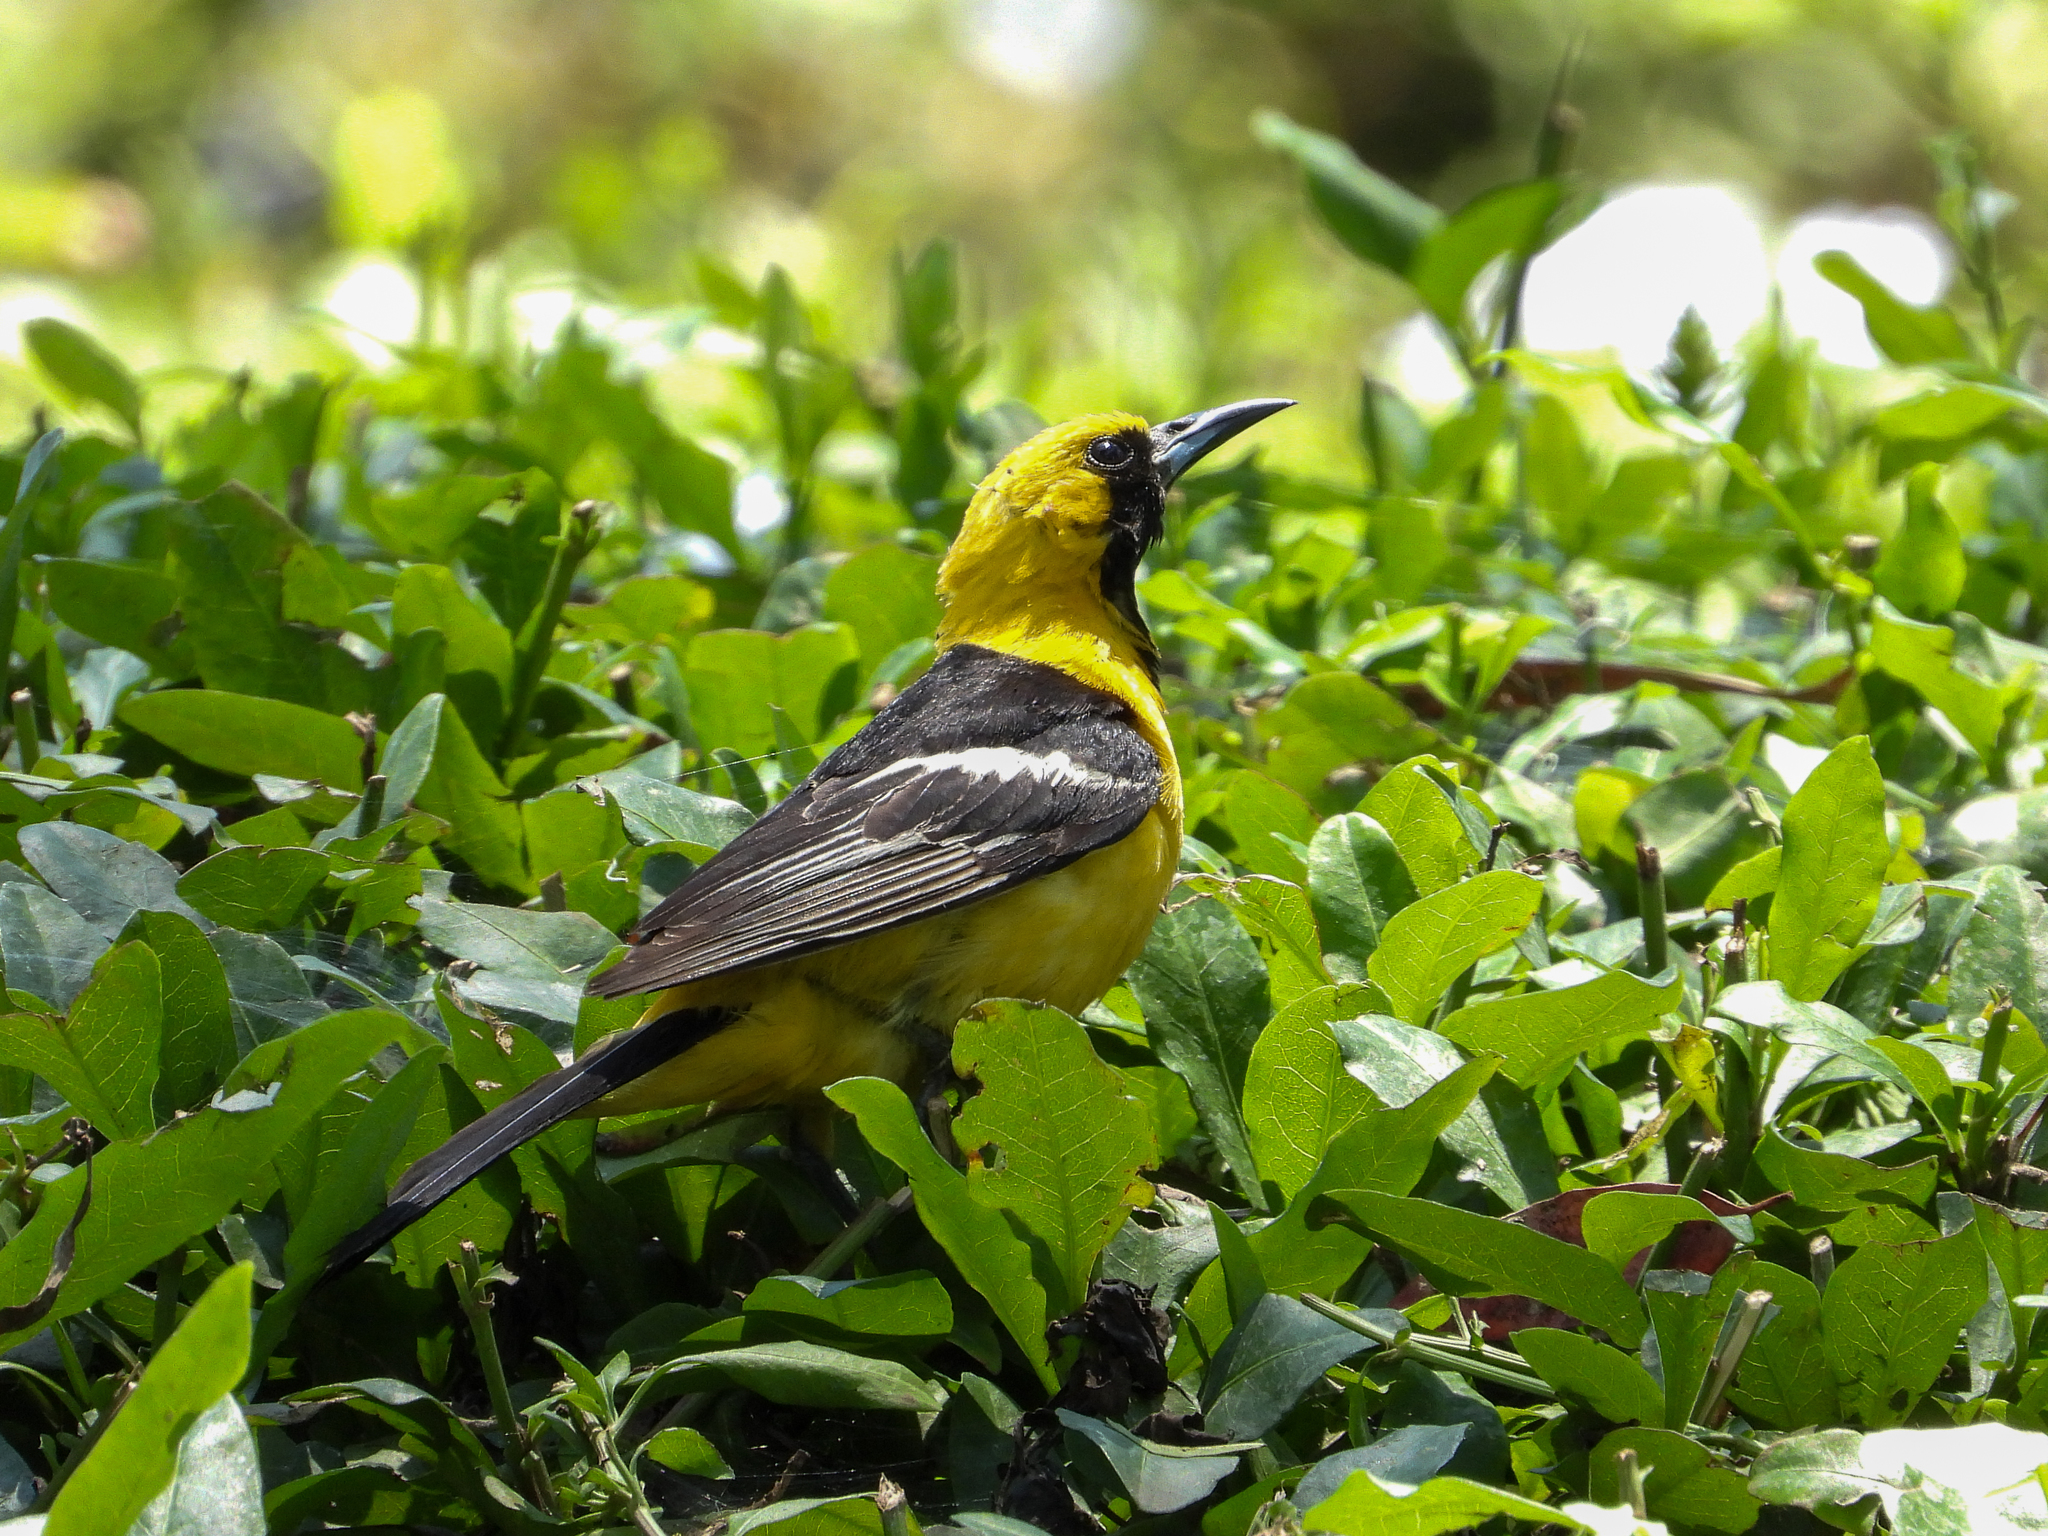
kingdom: Animalia
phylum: Chordata
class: Aves
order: Passeriformes
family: Icteridae
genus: Icterus
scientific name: Icterus cucullatus
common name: Hooded oriole
